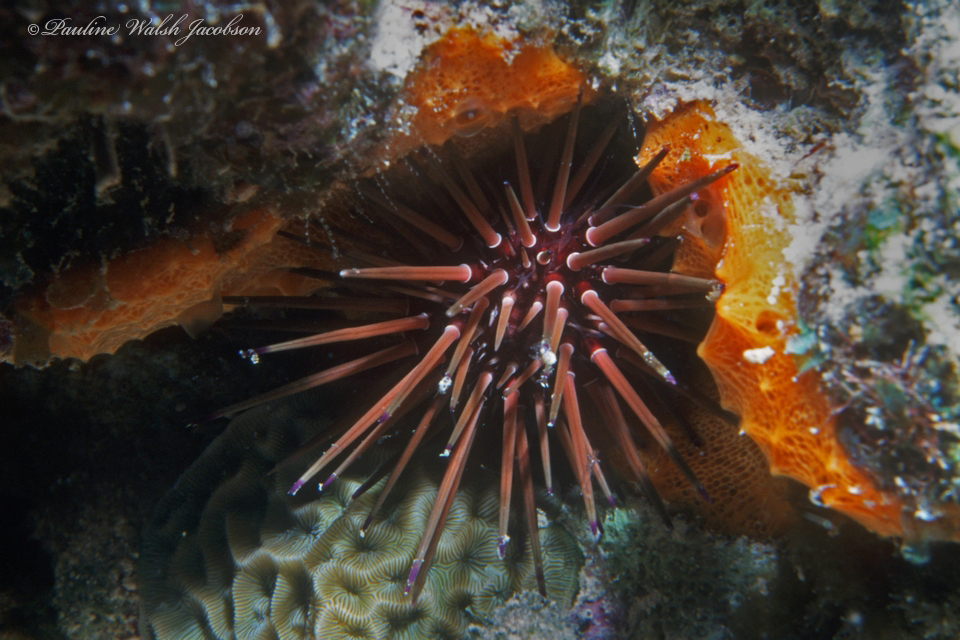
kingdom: Animalia
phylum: Echinodermata
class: Echinoidea
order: Camarodonta
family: Echinometridae
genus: Echinometra
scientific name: Echinometra viridis
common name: Reef urchin
